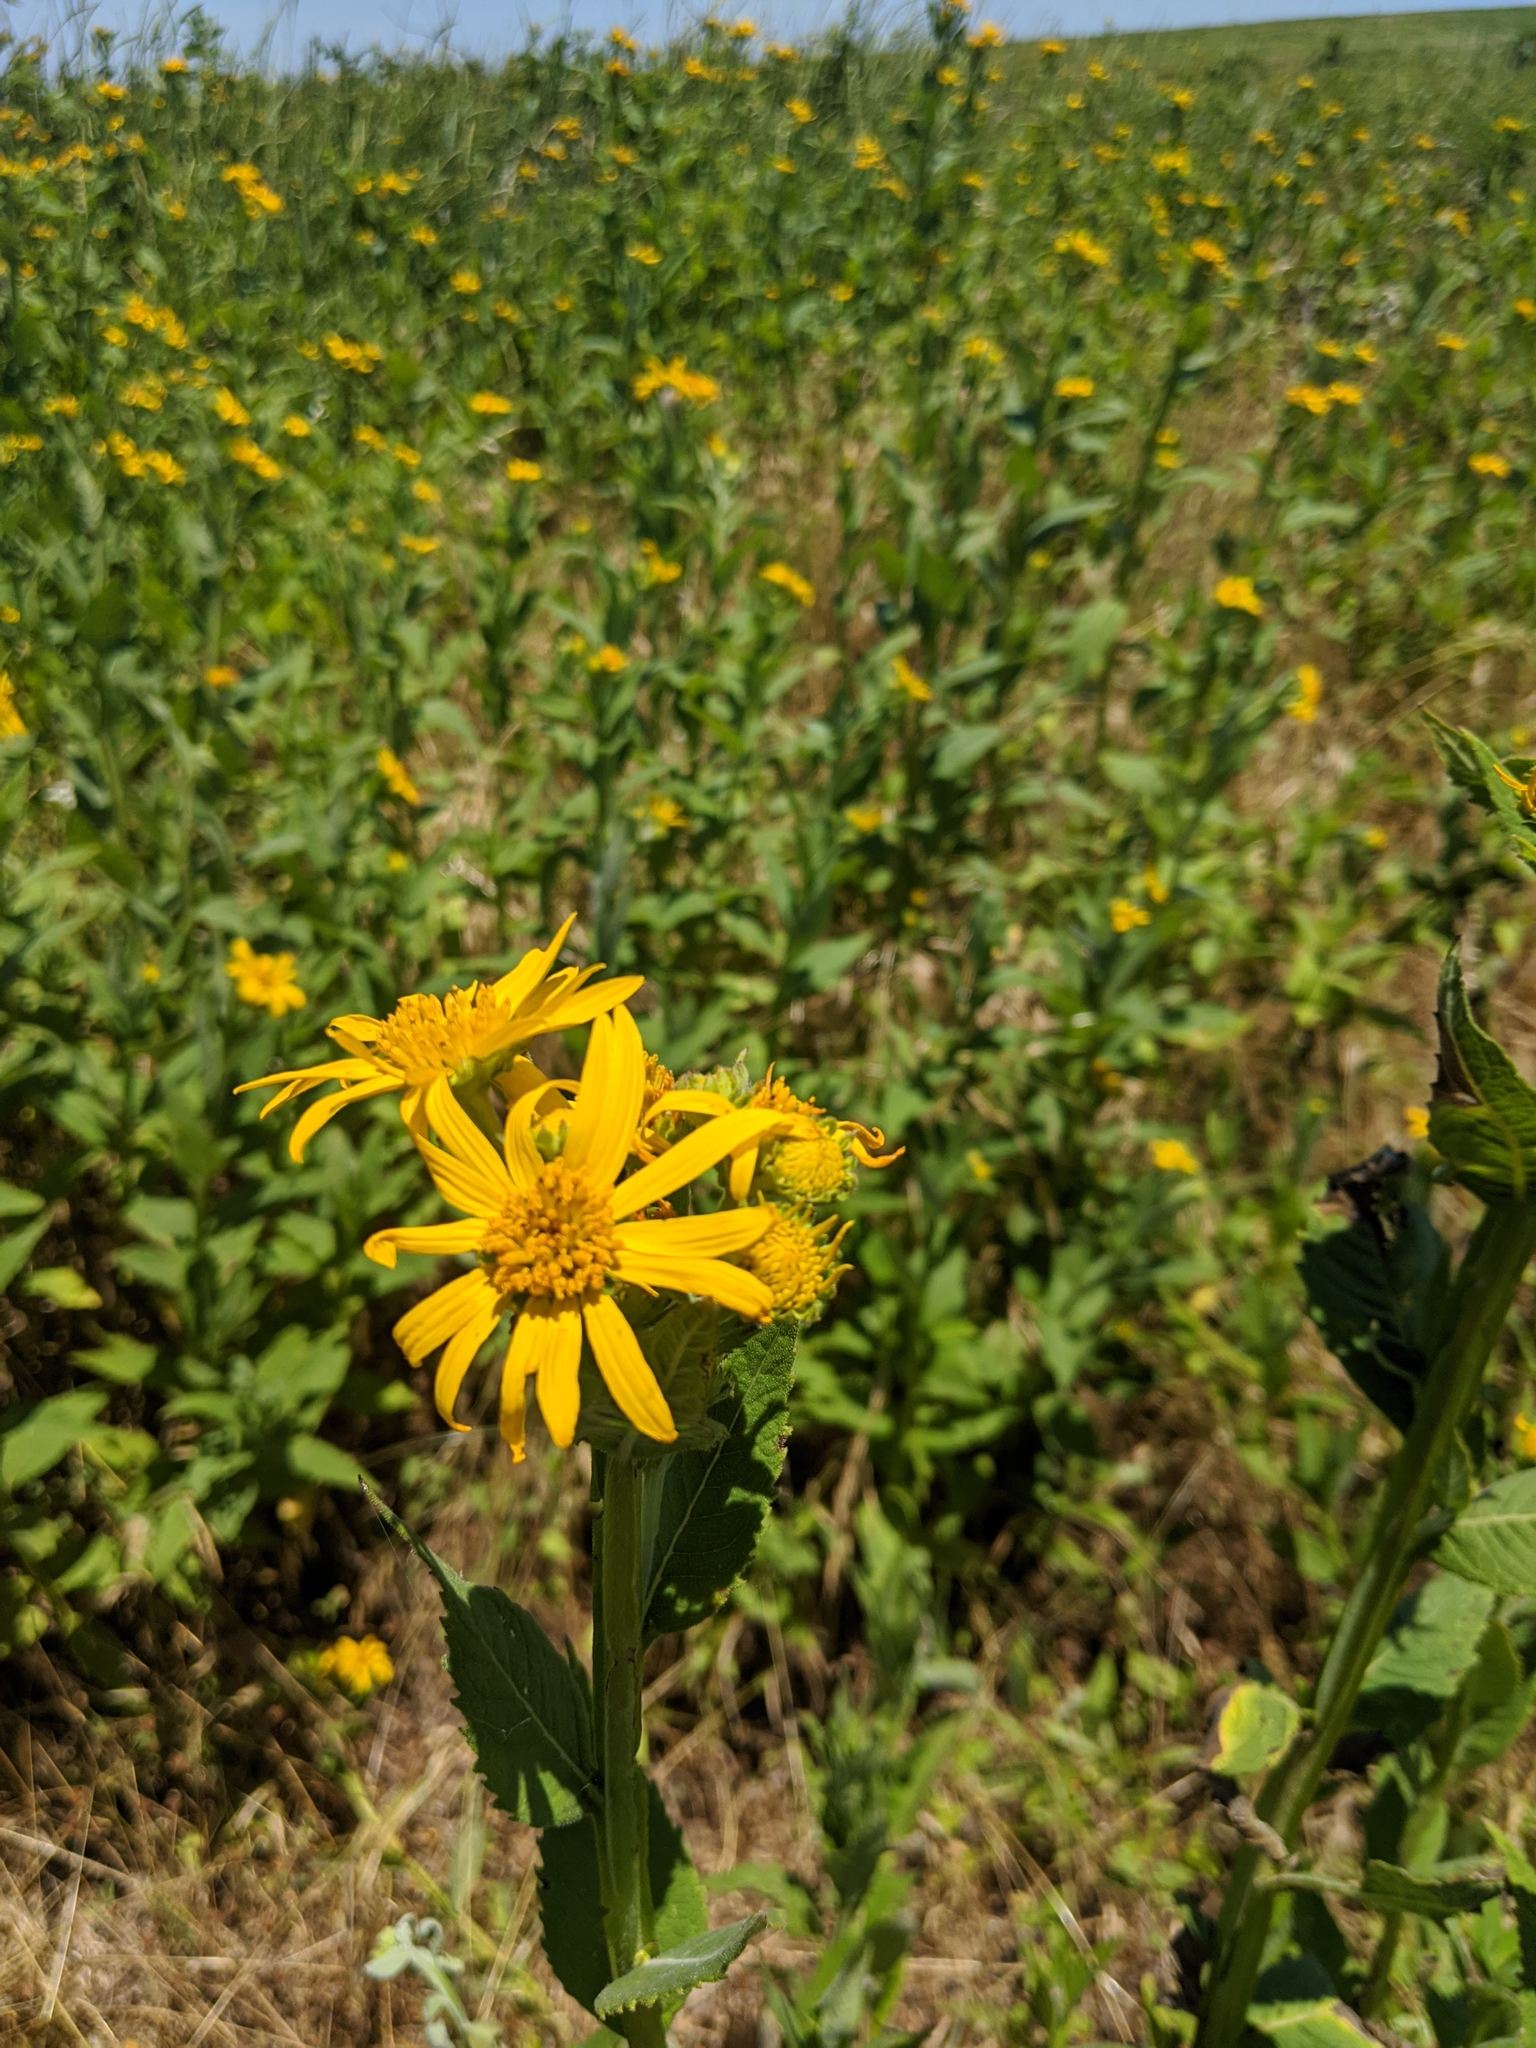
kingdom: Plantae
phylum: Tracheophyta
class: Magnoliopsida
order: Asterales
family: Asteraceae
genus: Verbesina
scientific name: Verbesina helianthoides
